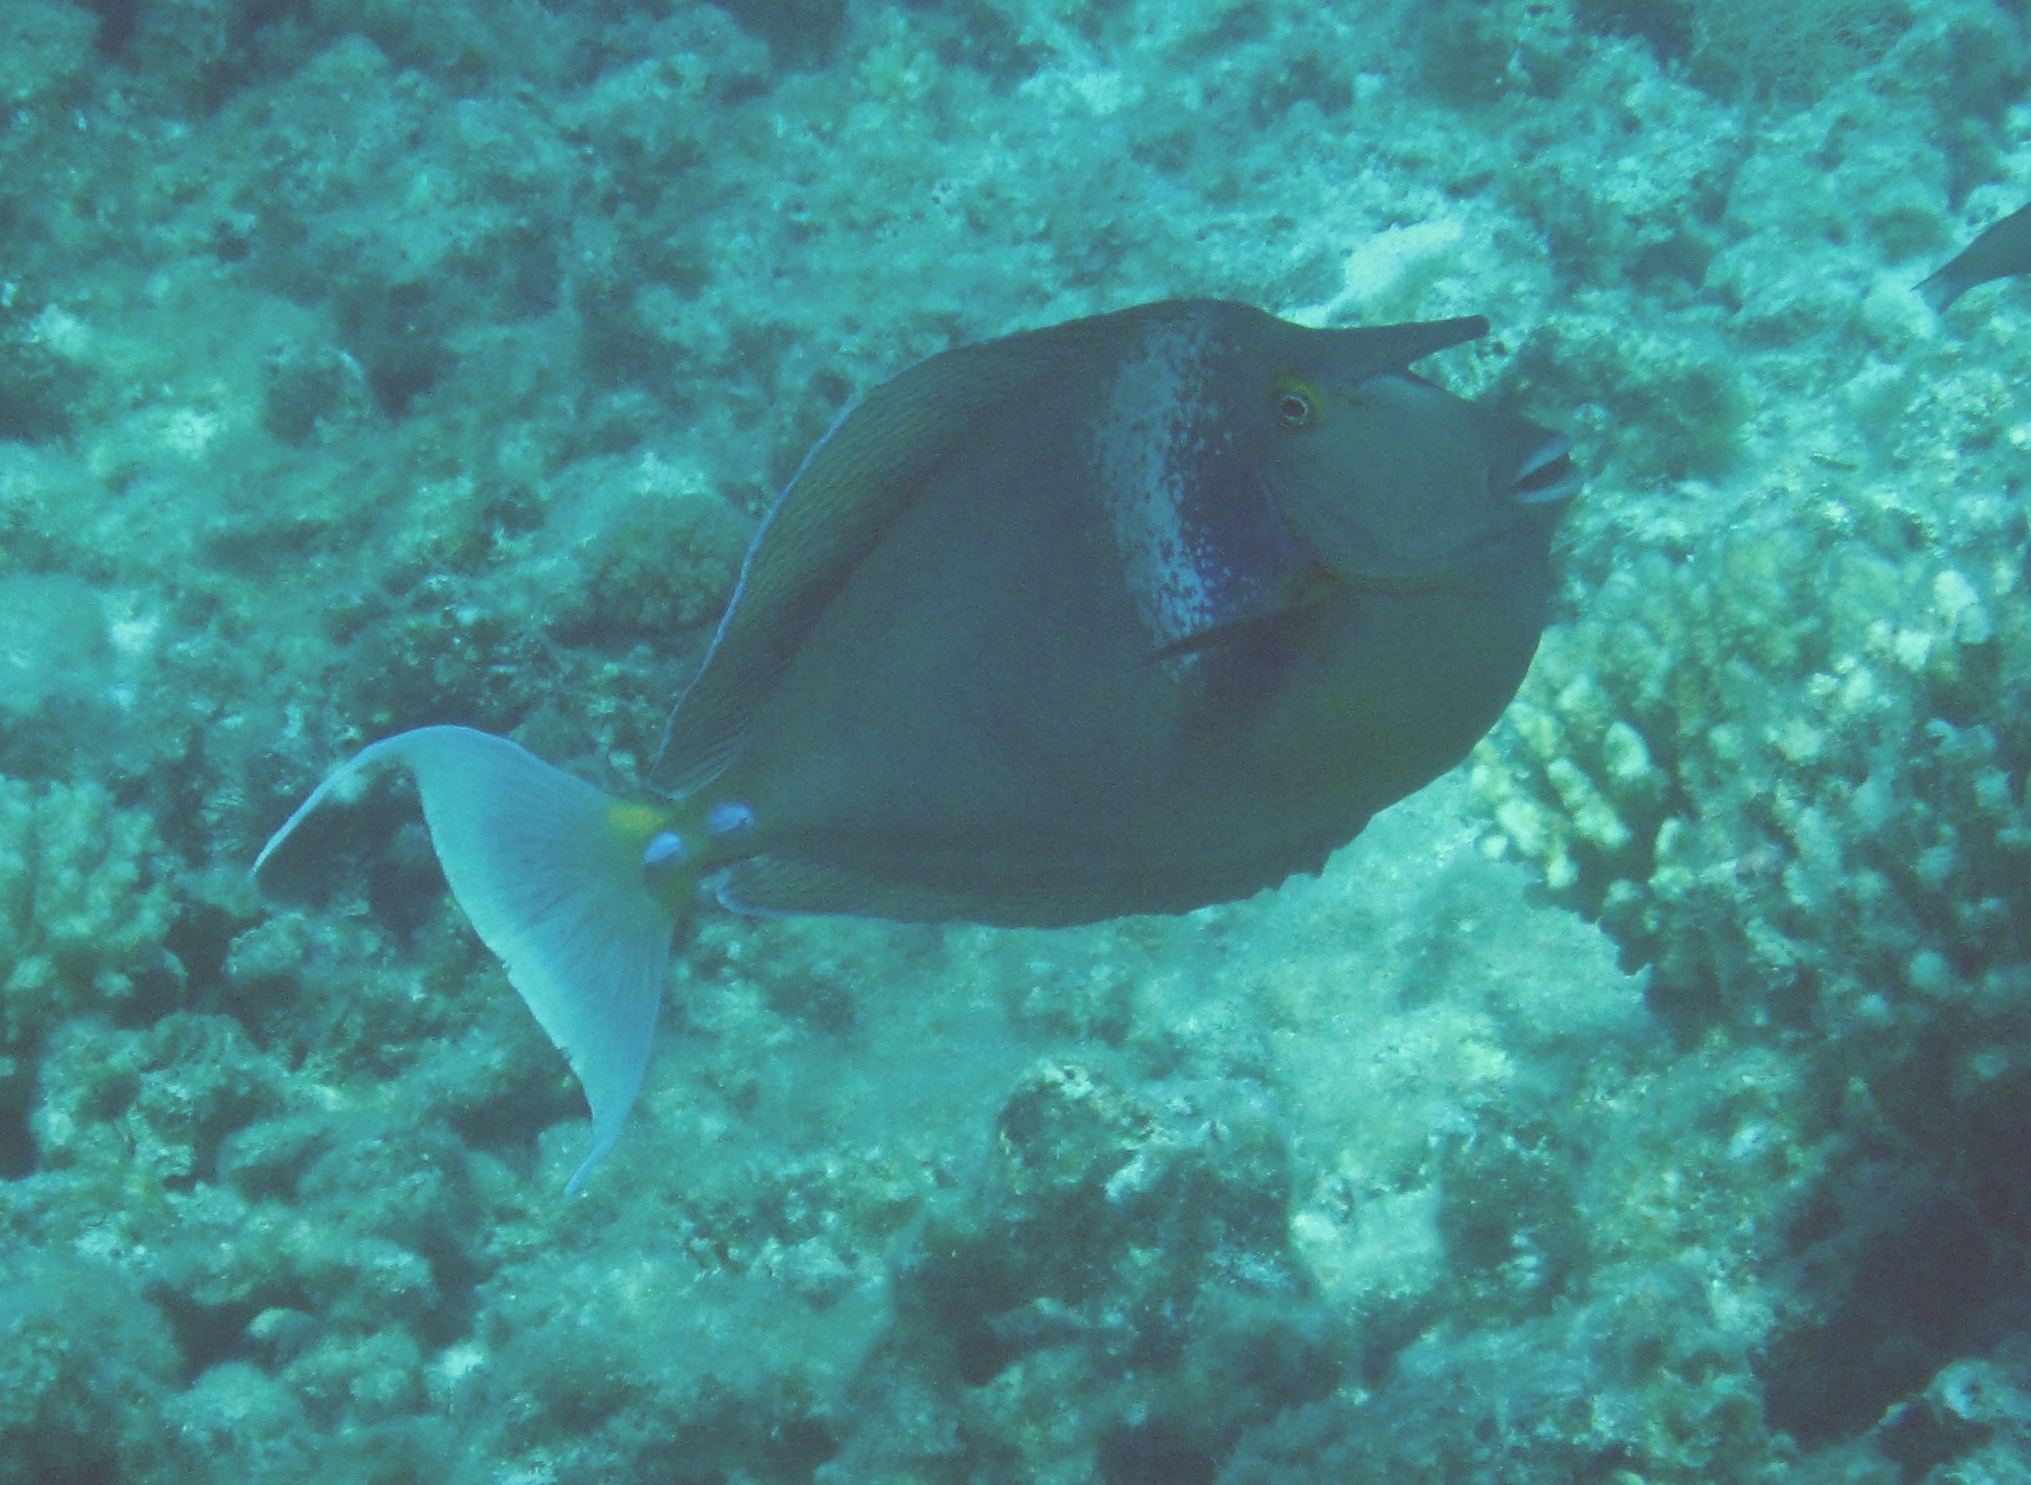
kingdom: Animalia
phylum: Chordata
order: Perciformes
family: Acanthuridae
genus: Naso
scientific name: Naso unicornis
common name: Bluespine unicornfish
